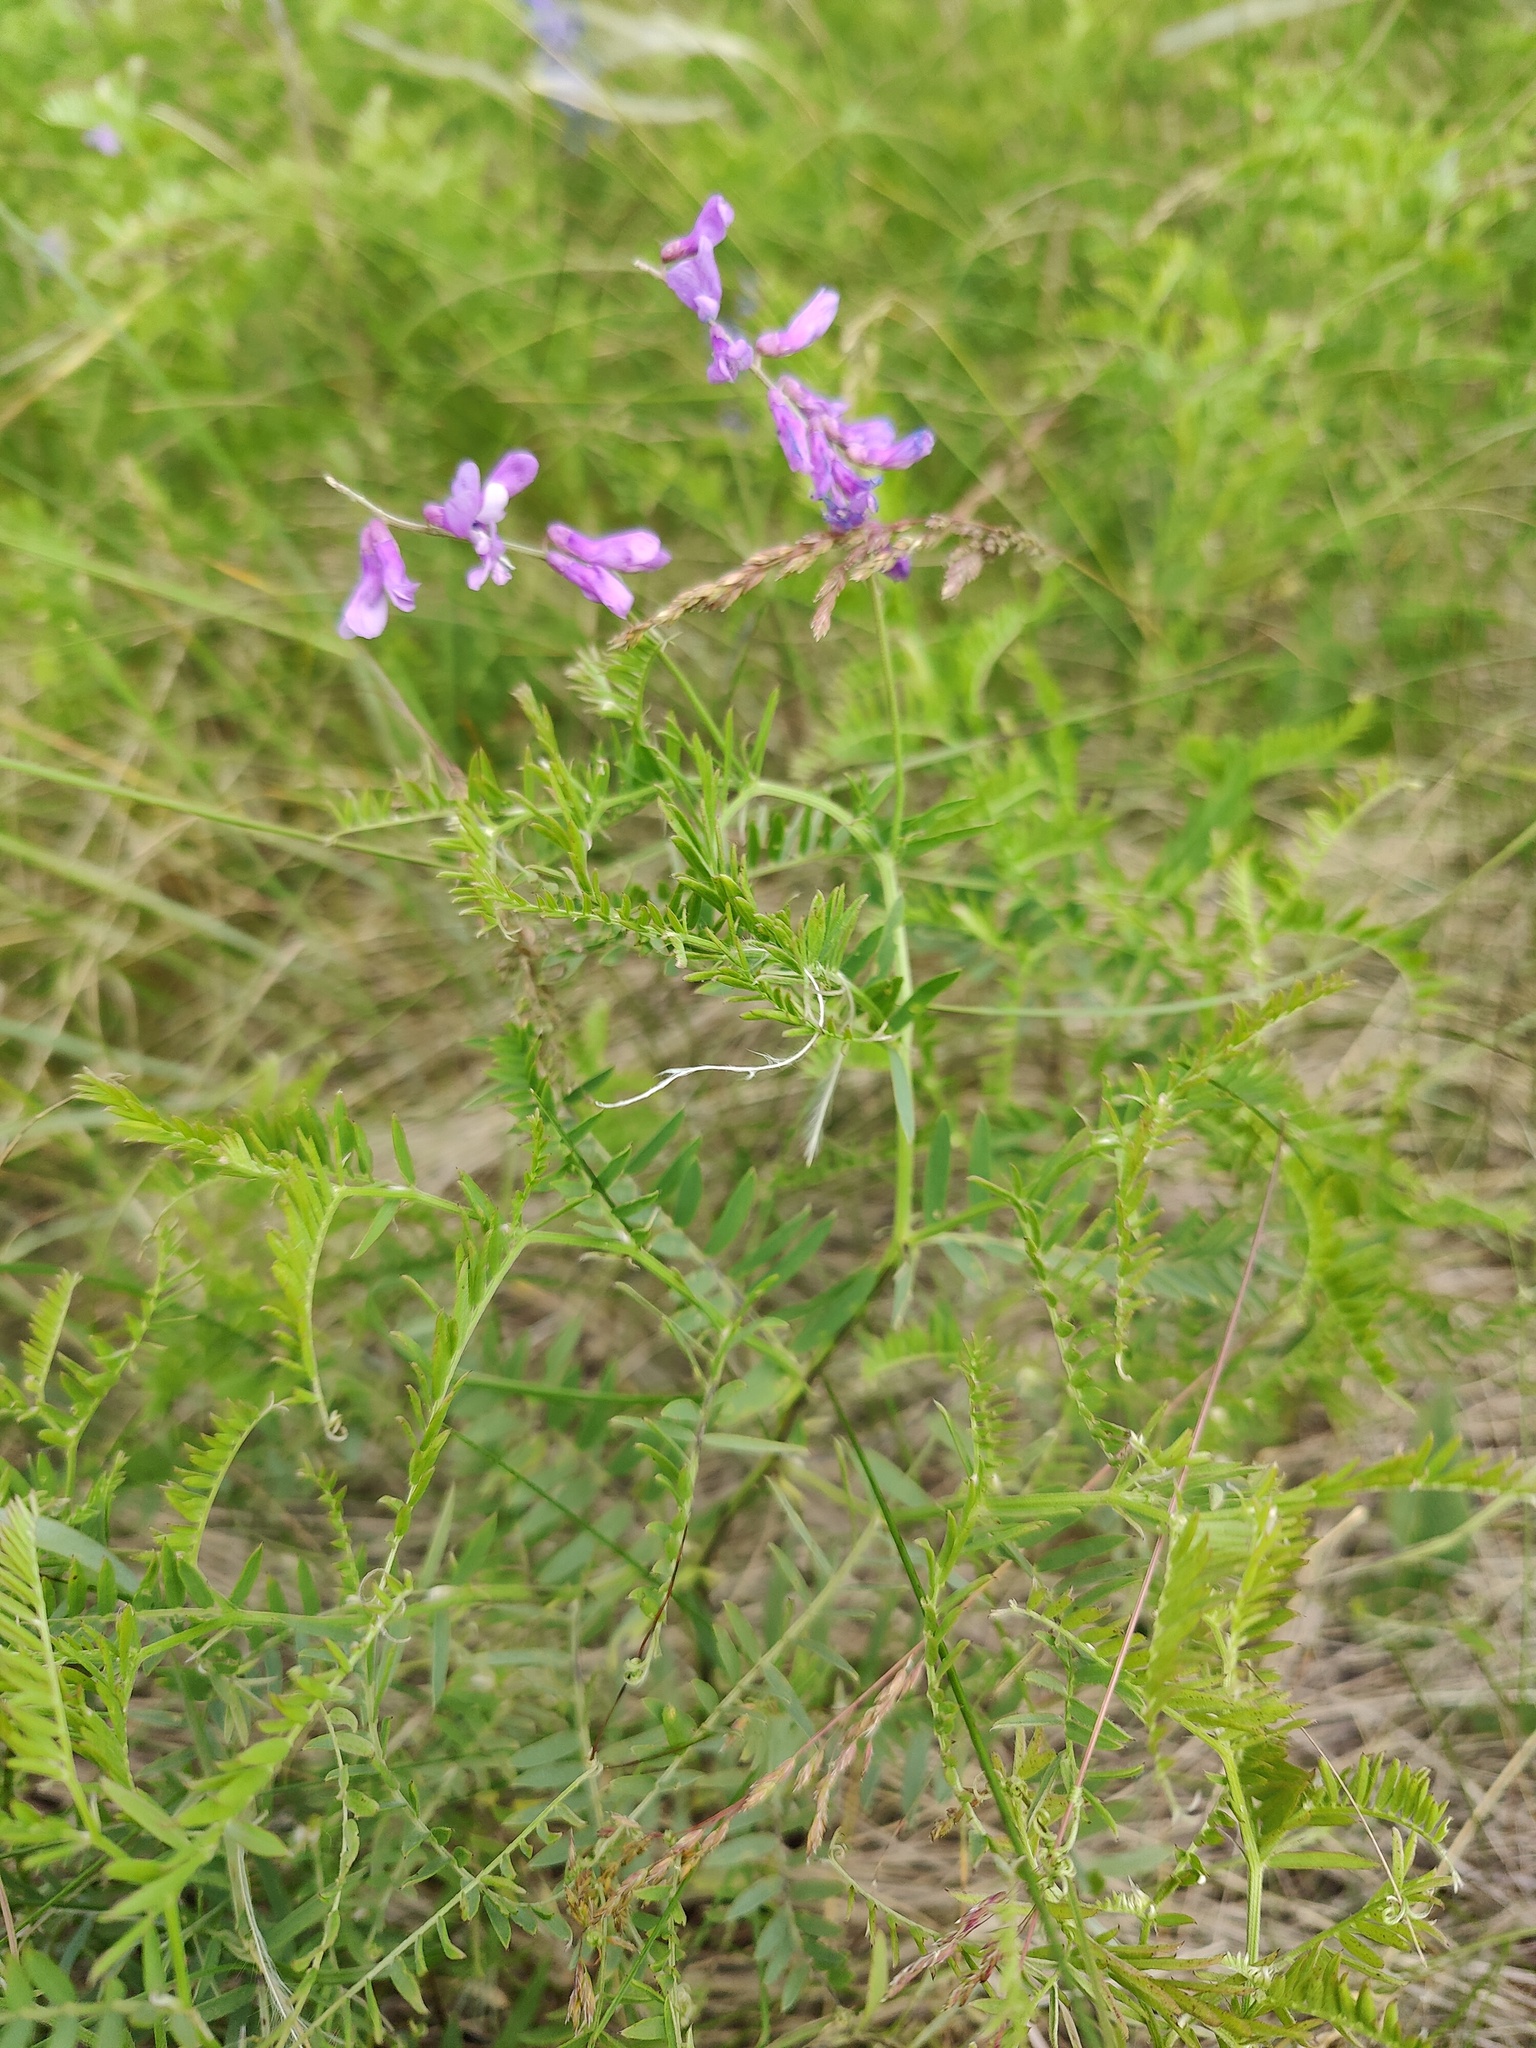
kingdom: Plantae
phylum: Tracheophyta
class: Magnoliopsida
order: Fabales
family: Fabaceae
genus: Vicia
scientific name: Vicia tenuifolia
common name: Fine-leaved vetch
